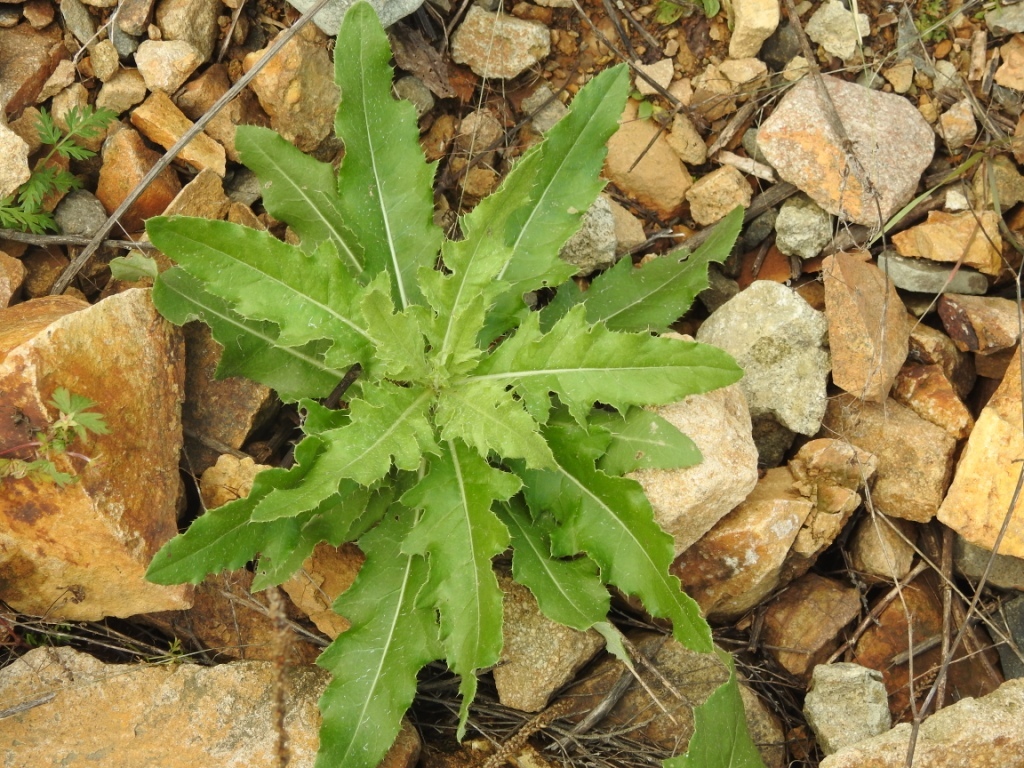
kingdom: Plantae
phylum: Tracheophyta
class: Magnoliopsida
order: Asterales
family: Asteraceae
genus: Cirsium
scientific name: Cirsium arvense
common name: Creeping thistle
